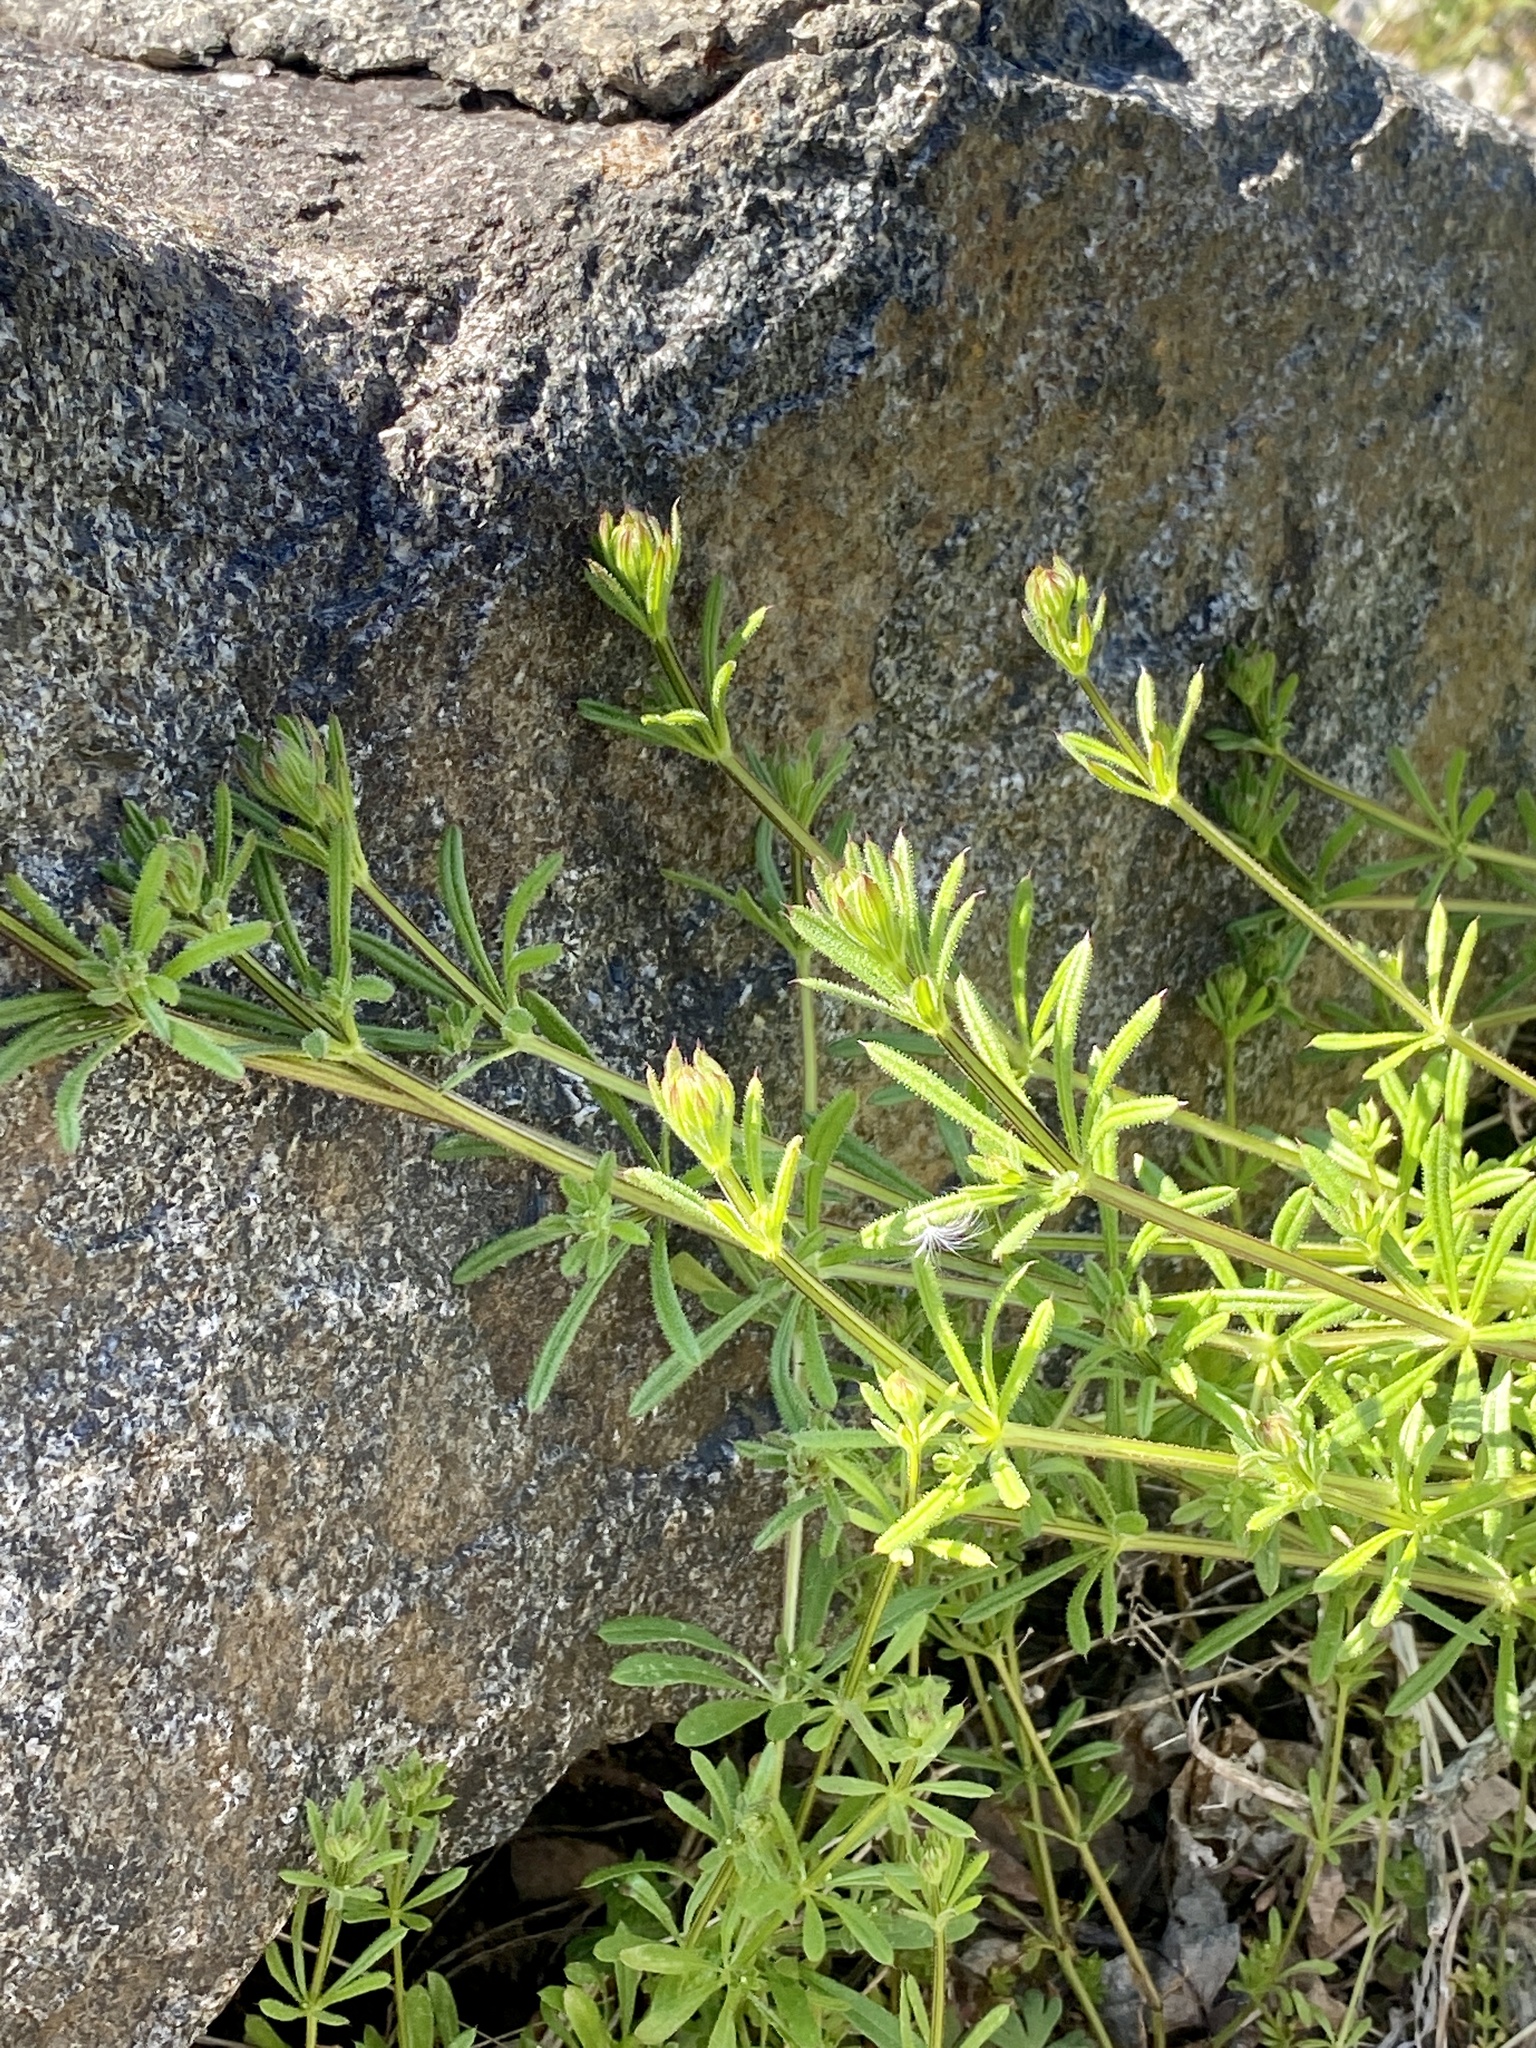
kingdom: Plantae
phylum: Tracheophyta
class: Magnoliopsida
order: Gentianales
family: Rubiaceae
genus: Galium
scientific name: Galium aparine
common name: Cleavers
